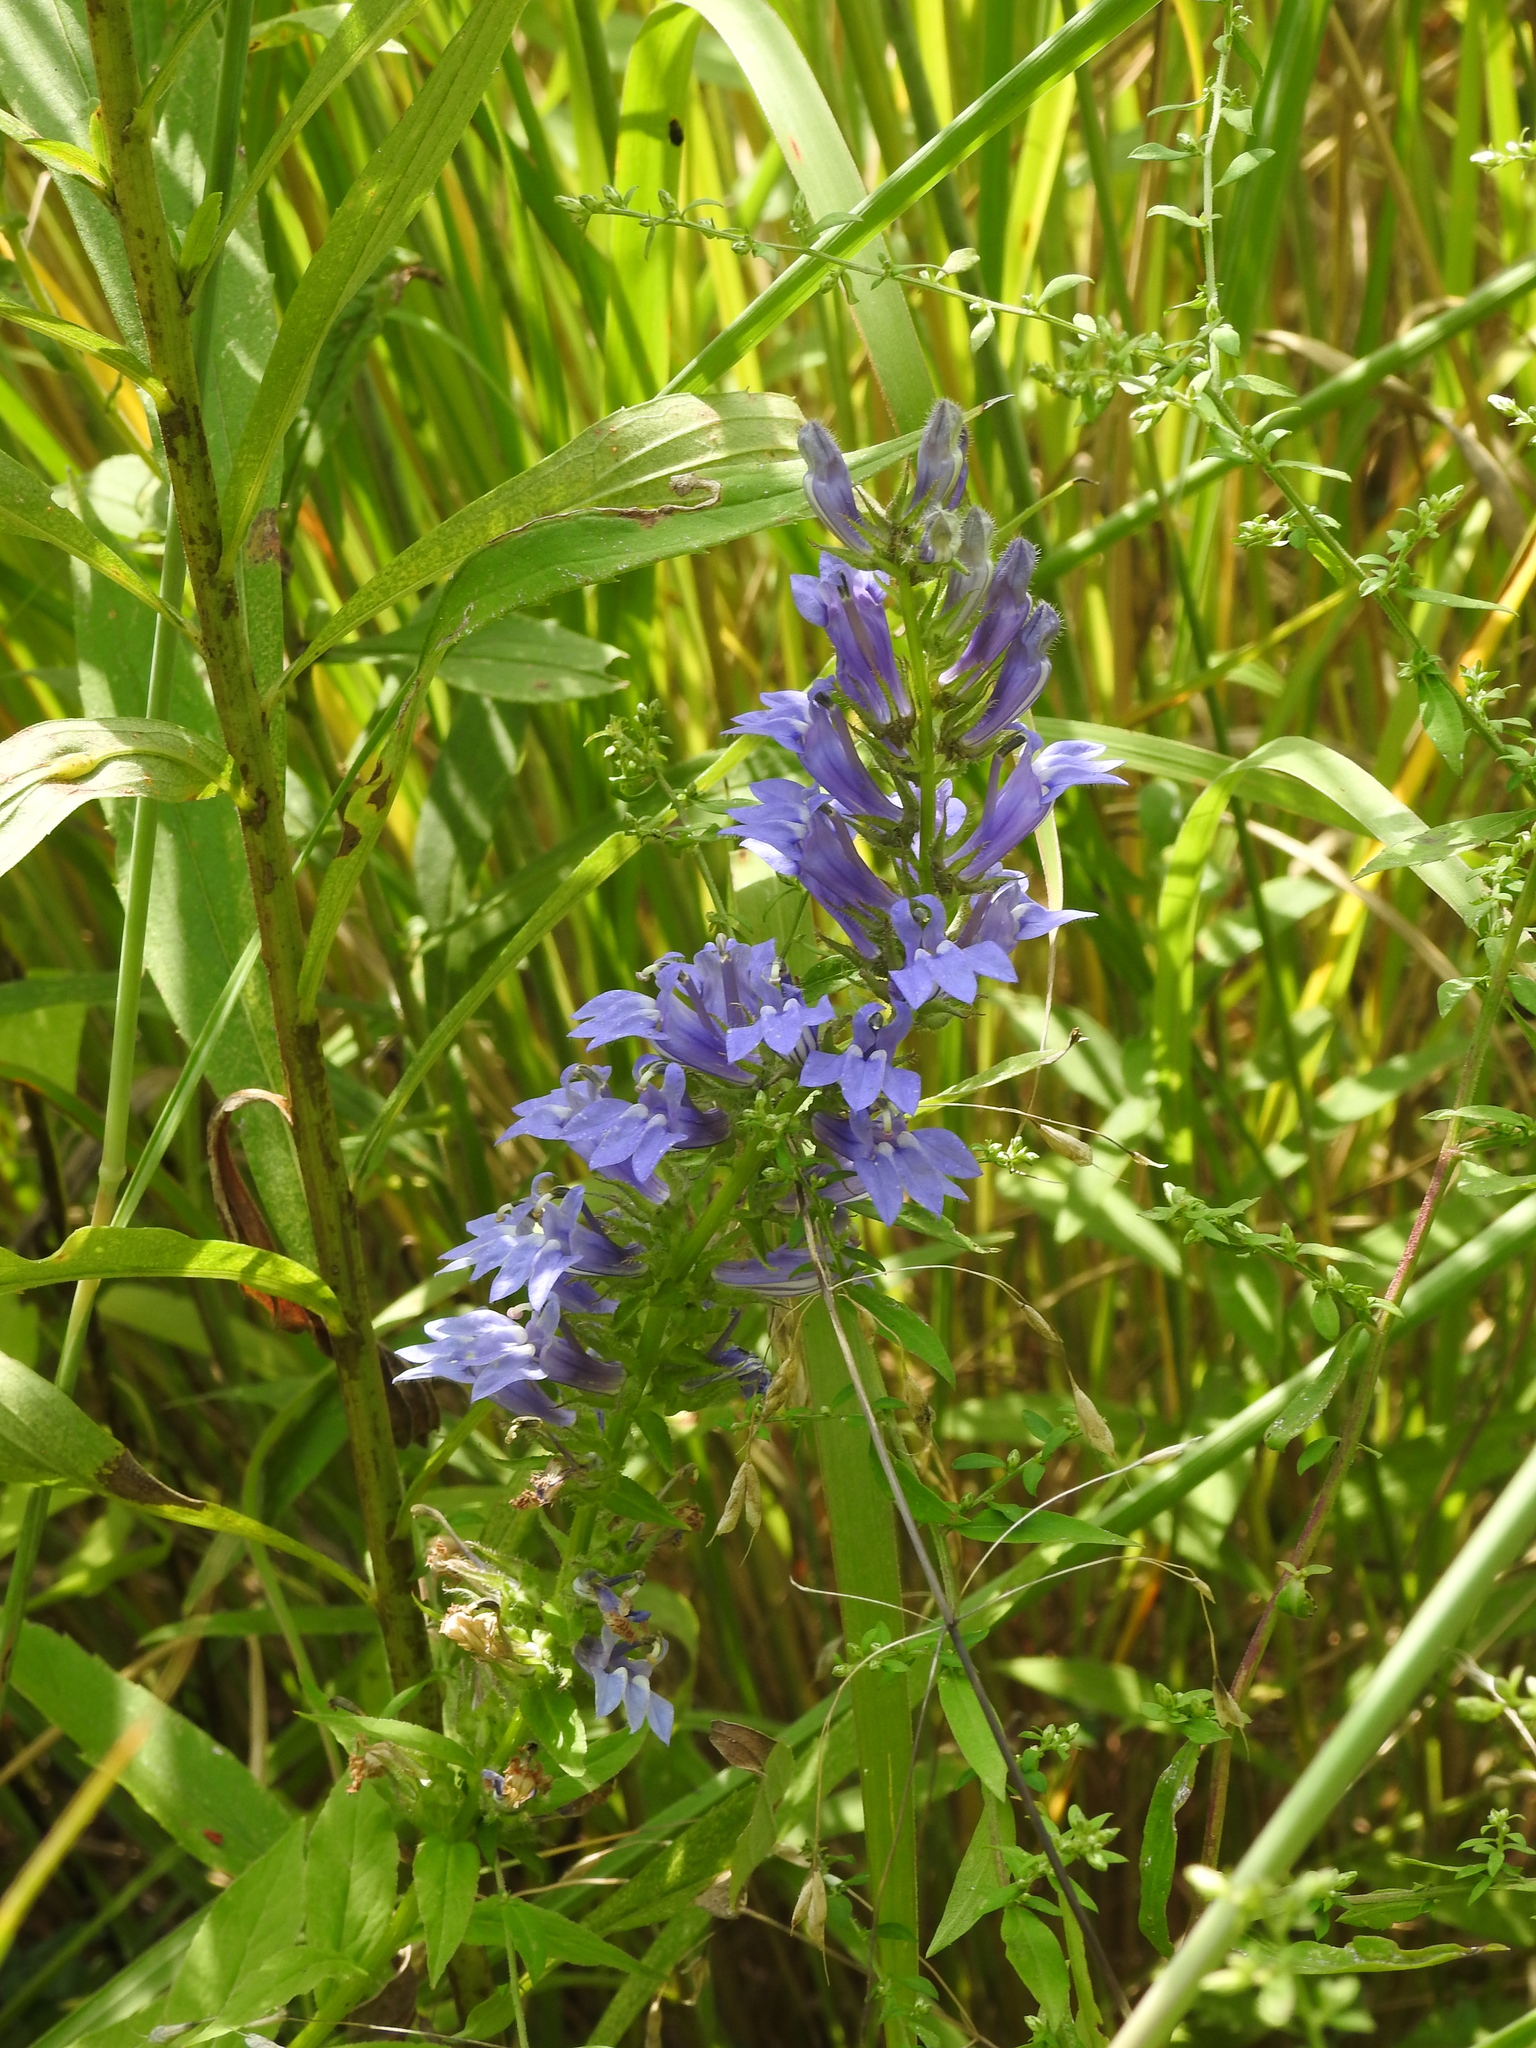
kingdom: Plantae
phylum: Tracheophyta
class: Magnoliopsida
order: Asterales
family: Campanulaceae
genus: Lobelia
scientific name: Lobelia siphilitica
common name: Great lobelia
